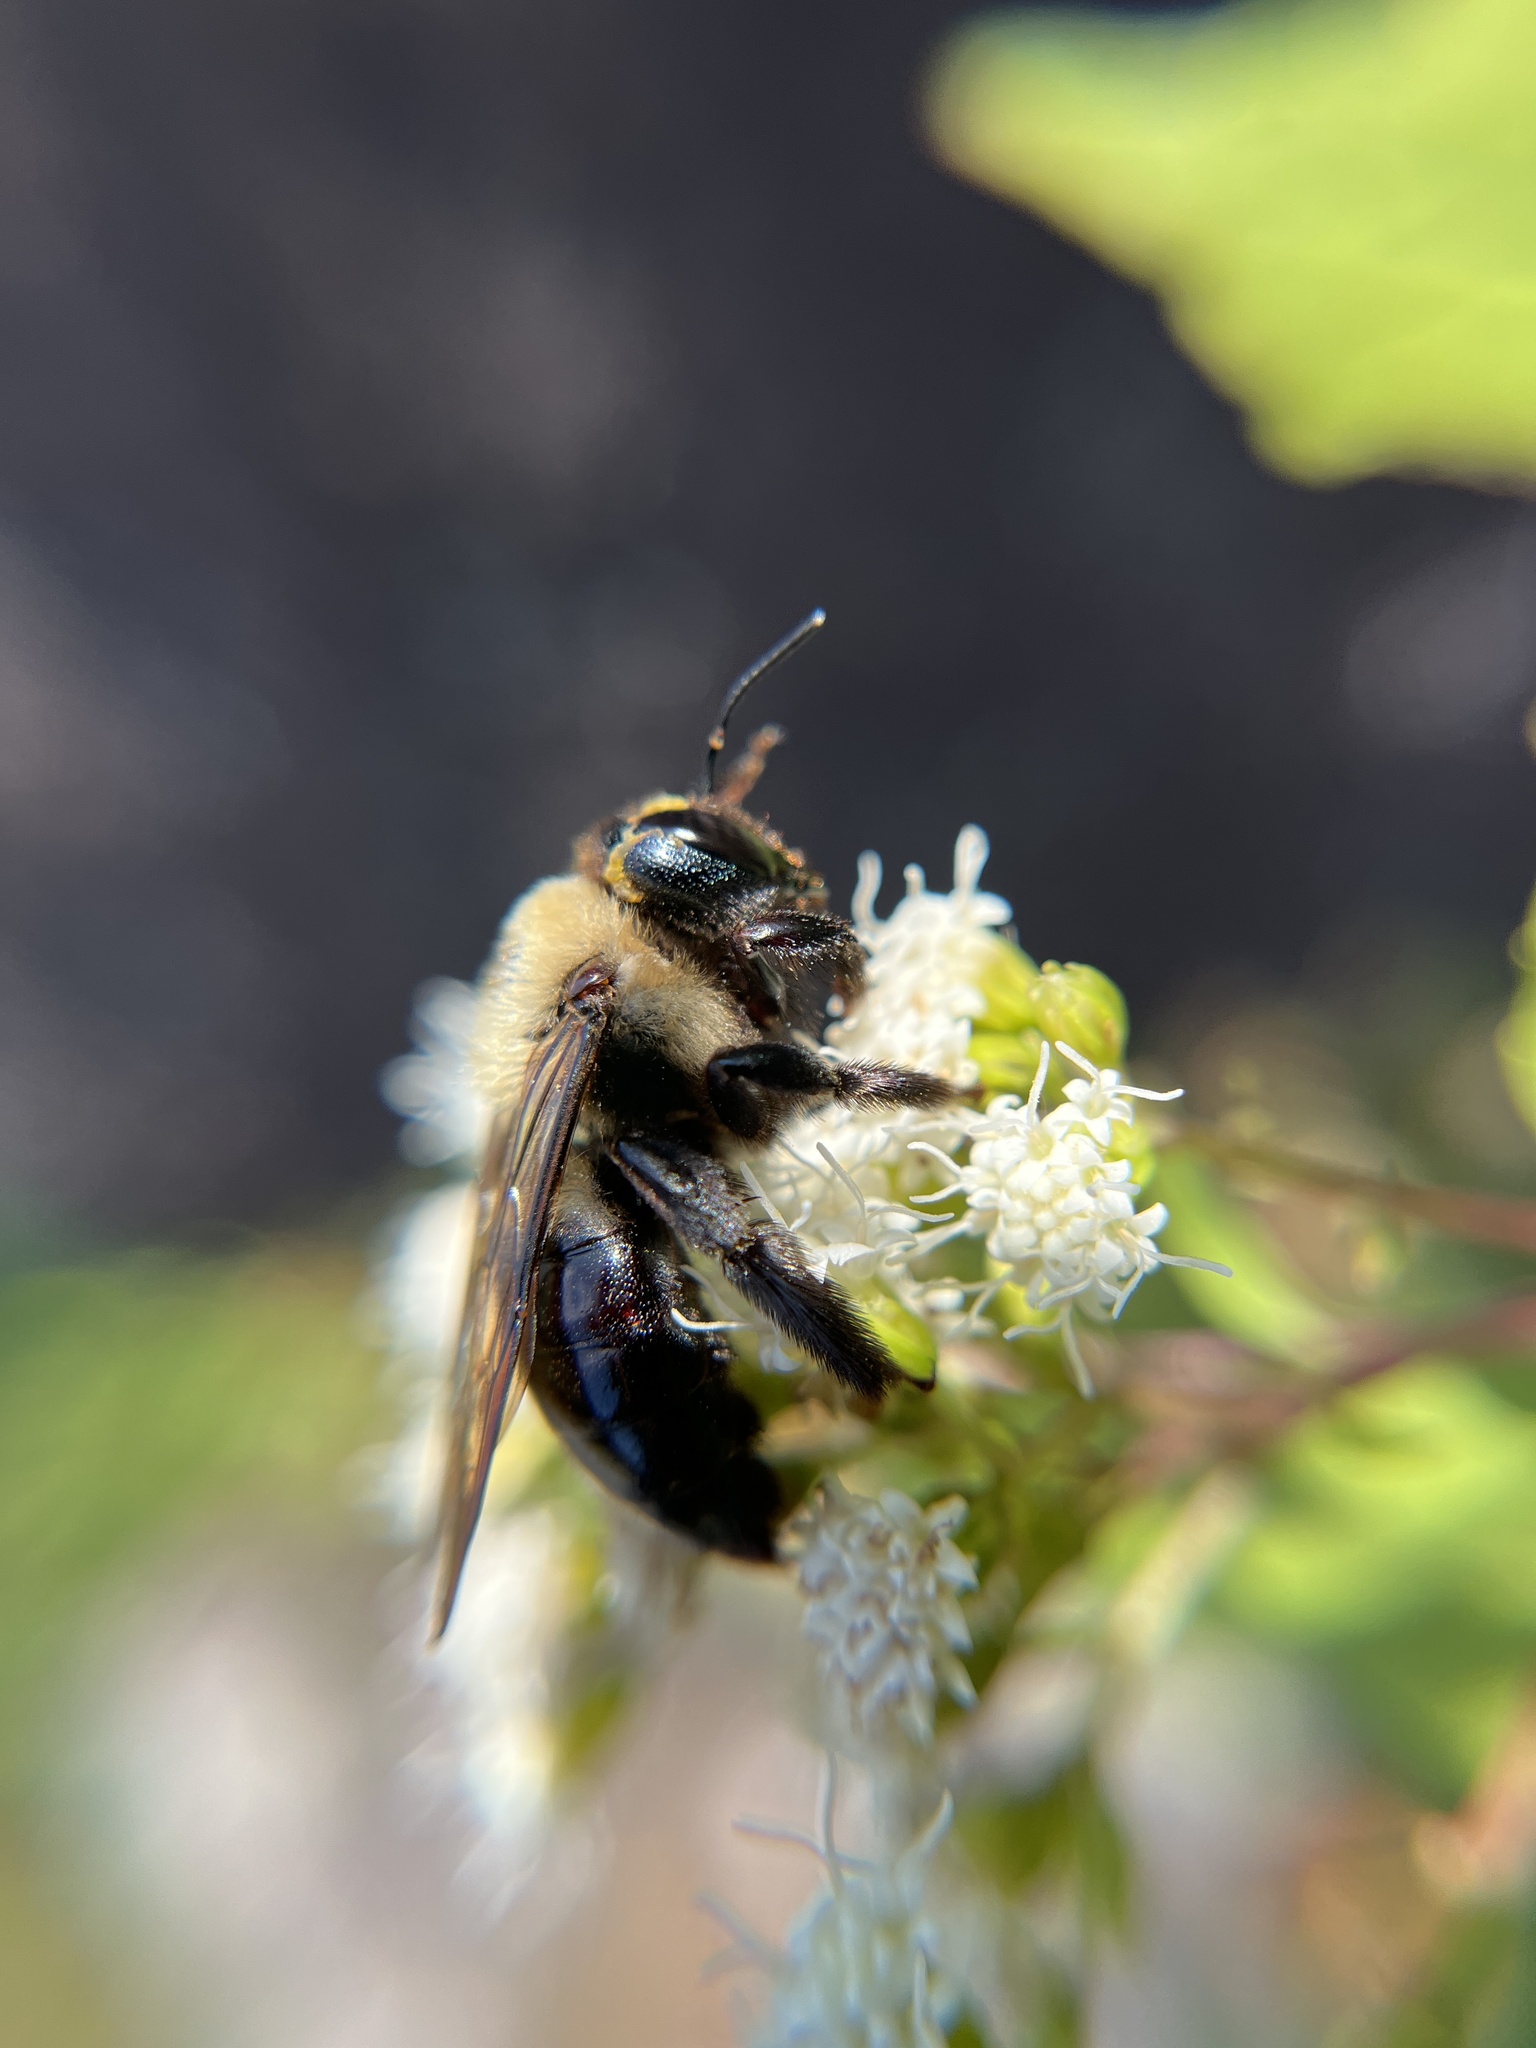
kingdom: Animalia
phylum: Arthropoda
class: Insecta
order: Hymenoptera
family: Apidae
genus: Xylocopa
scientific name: Xylocopa virginica
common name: Carpenter bee
